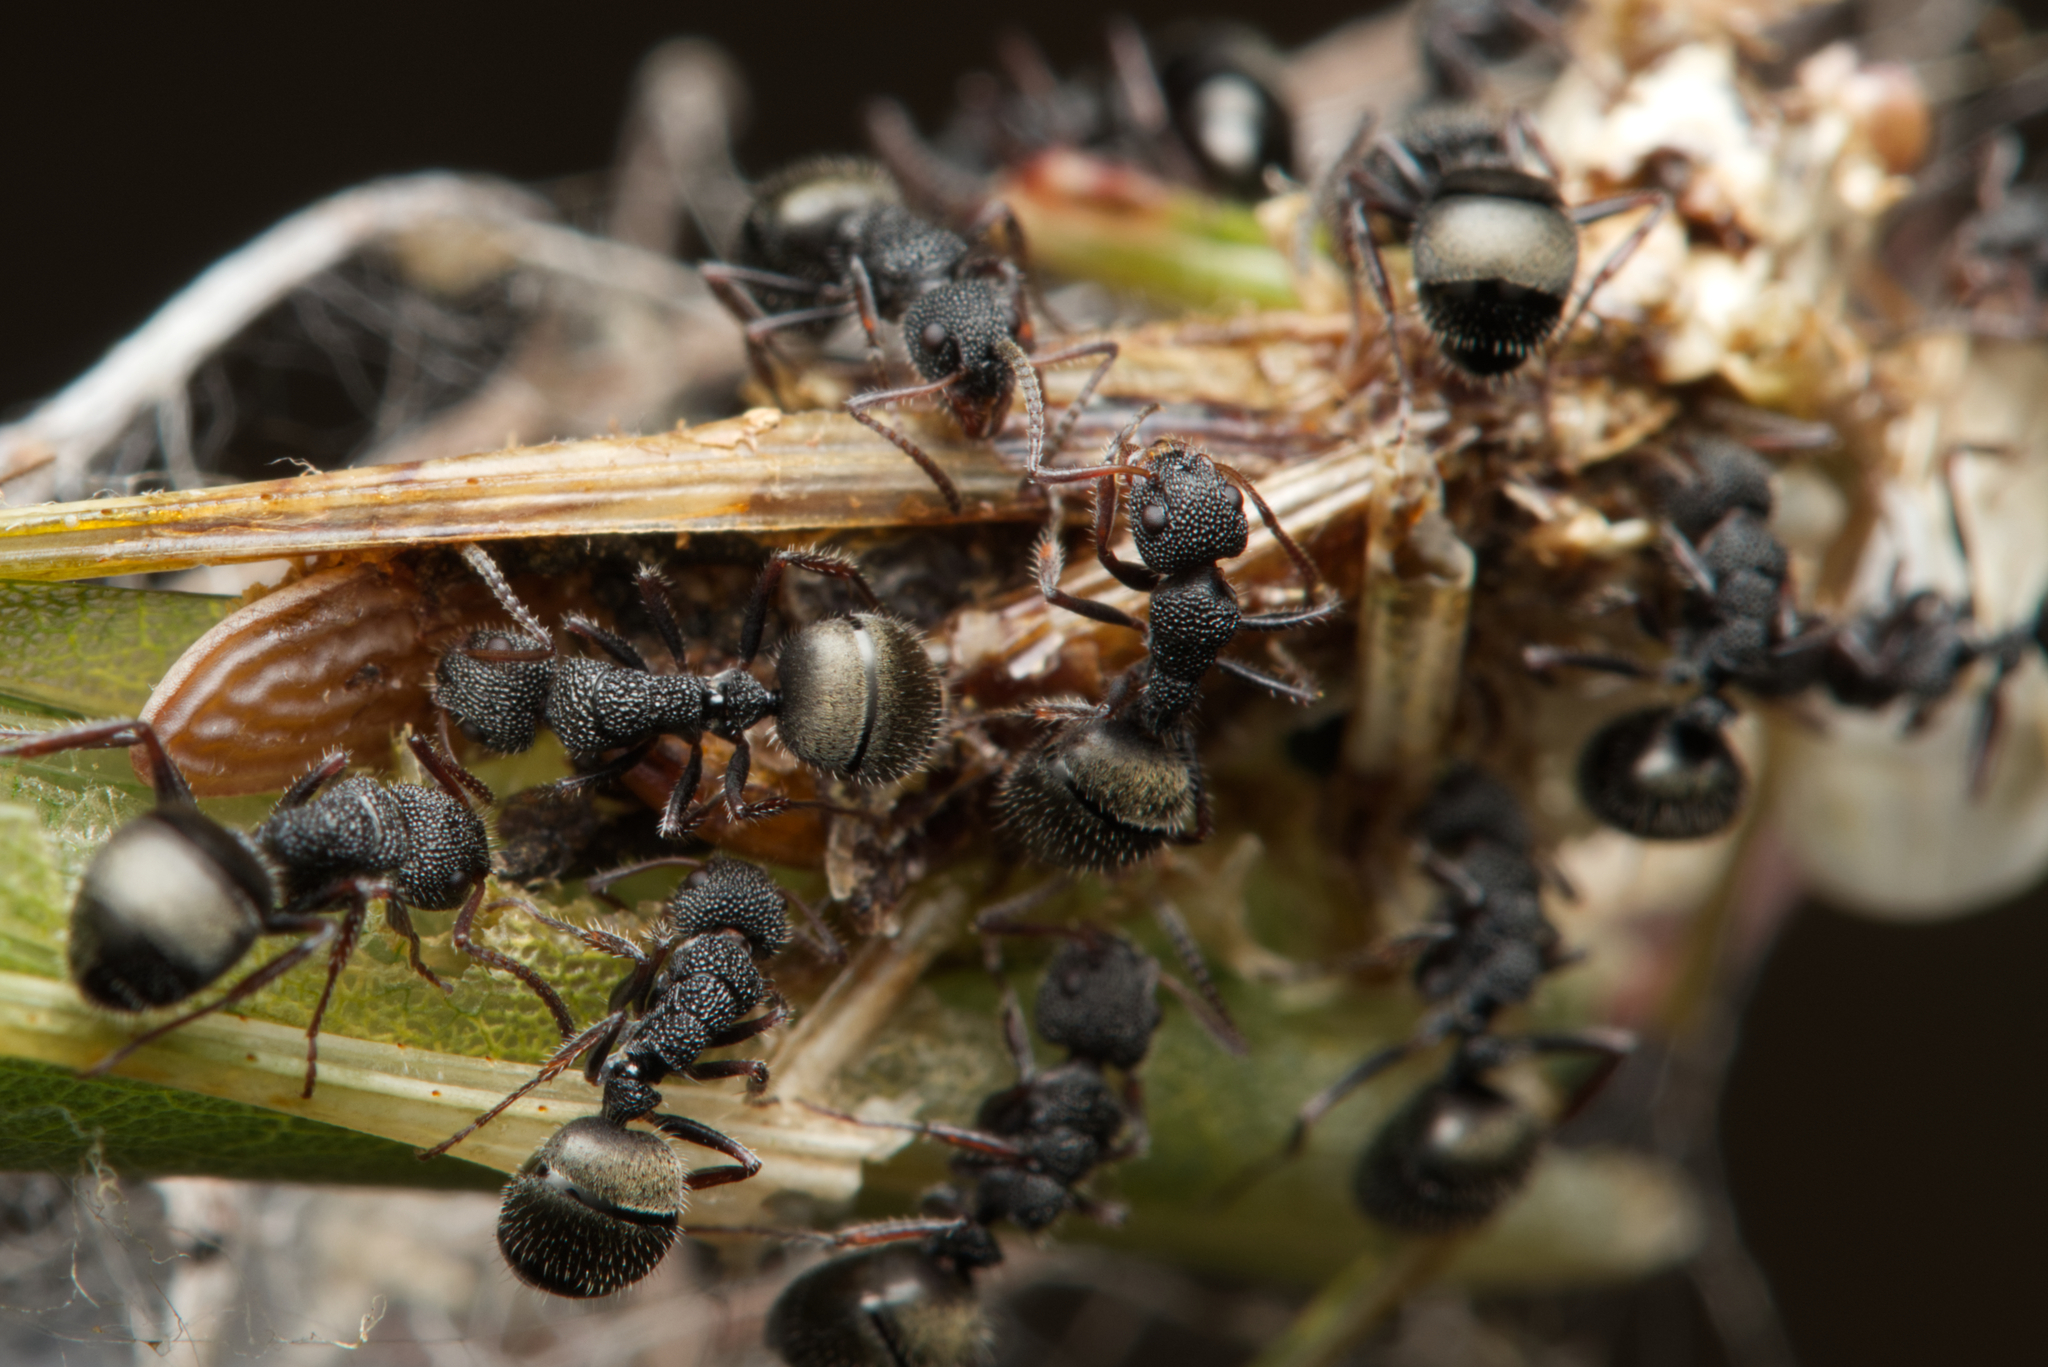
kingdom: Animalia
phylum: Arthropoda
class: Insecta
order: Hymenoptera
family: Formicidae
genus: Dolichoderus
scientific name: Dolichoderus scrobiculatus
